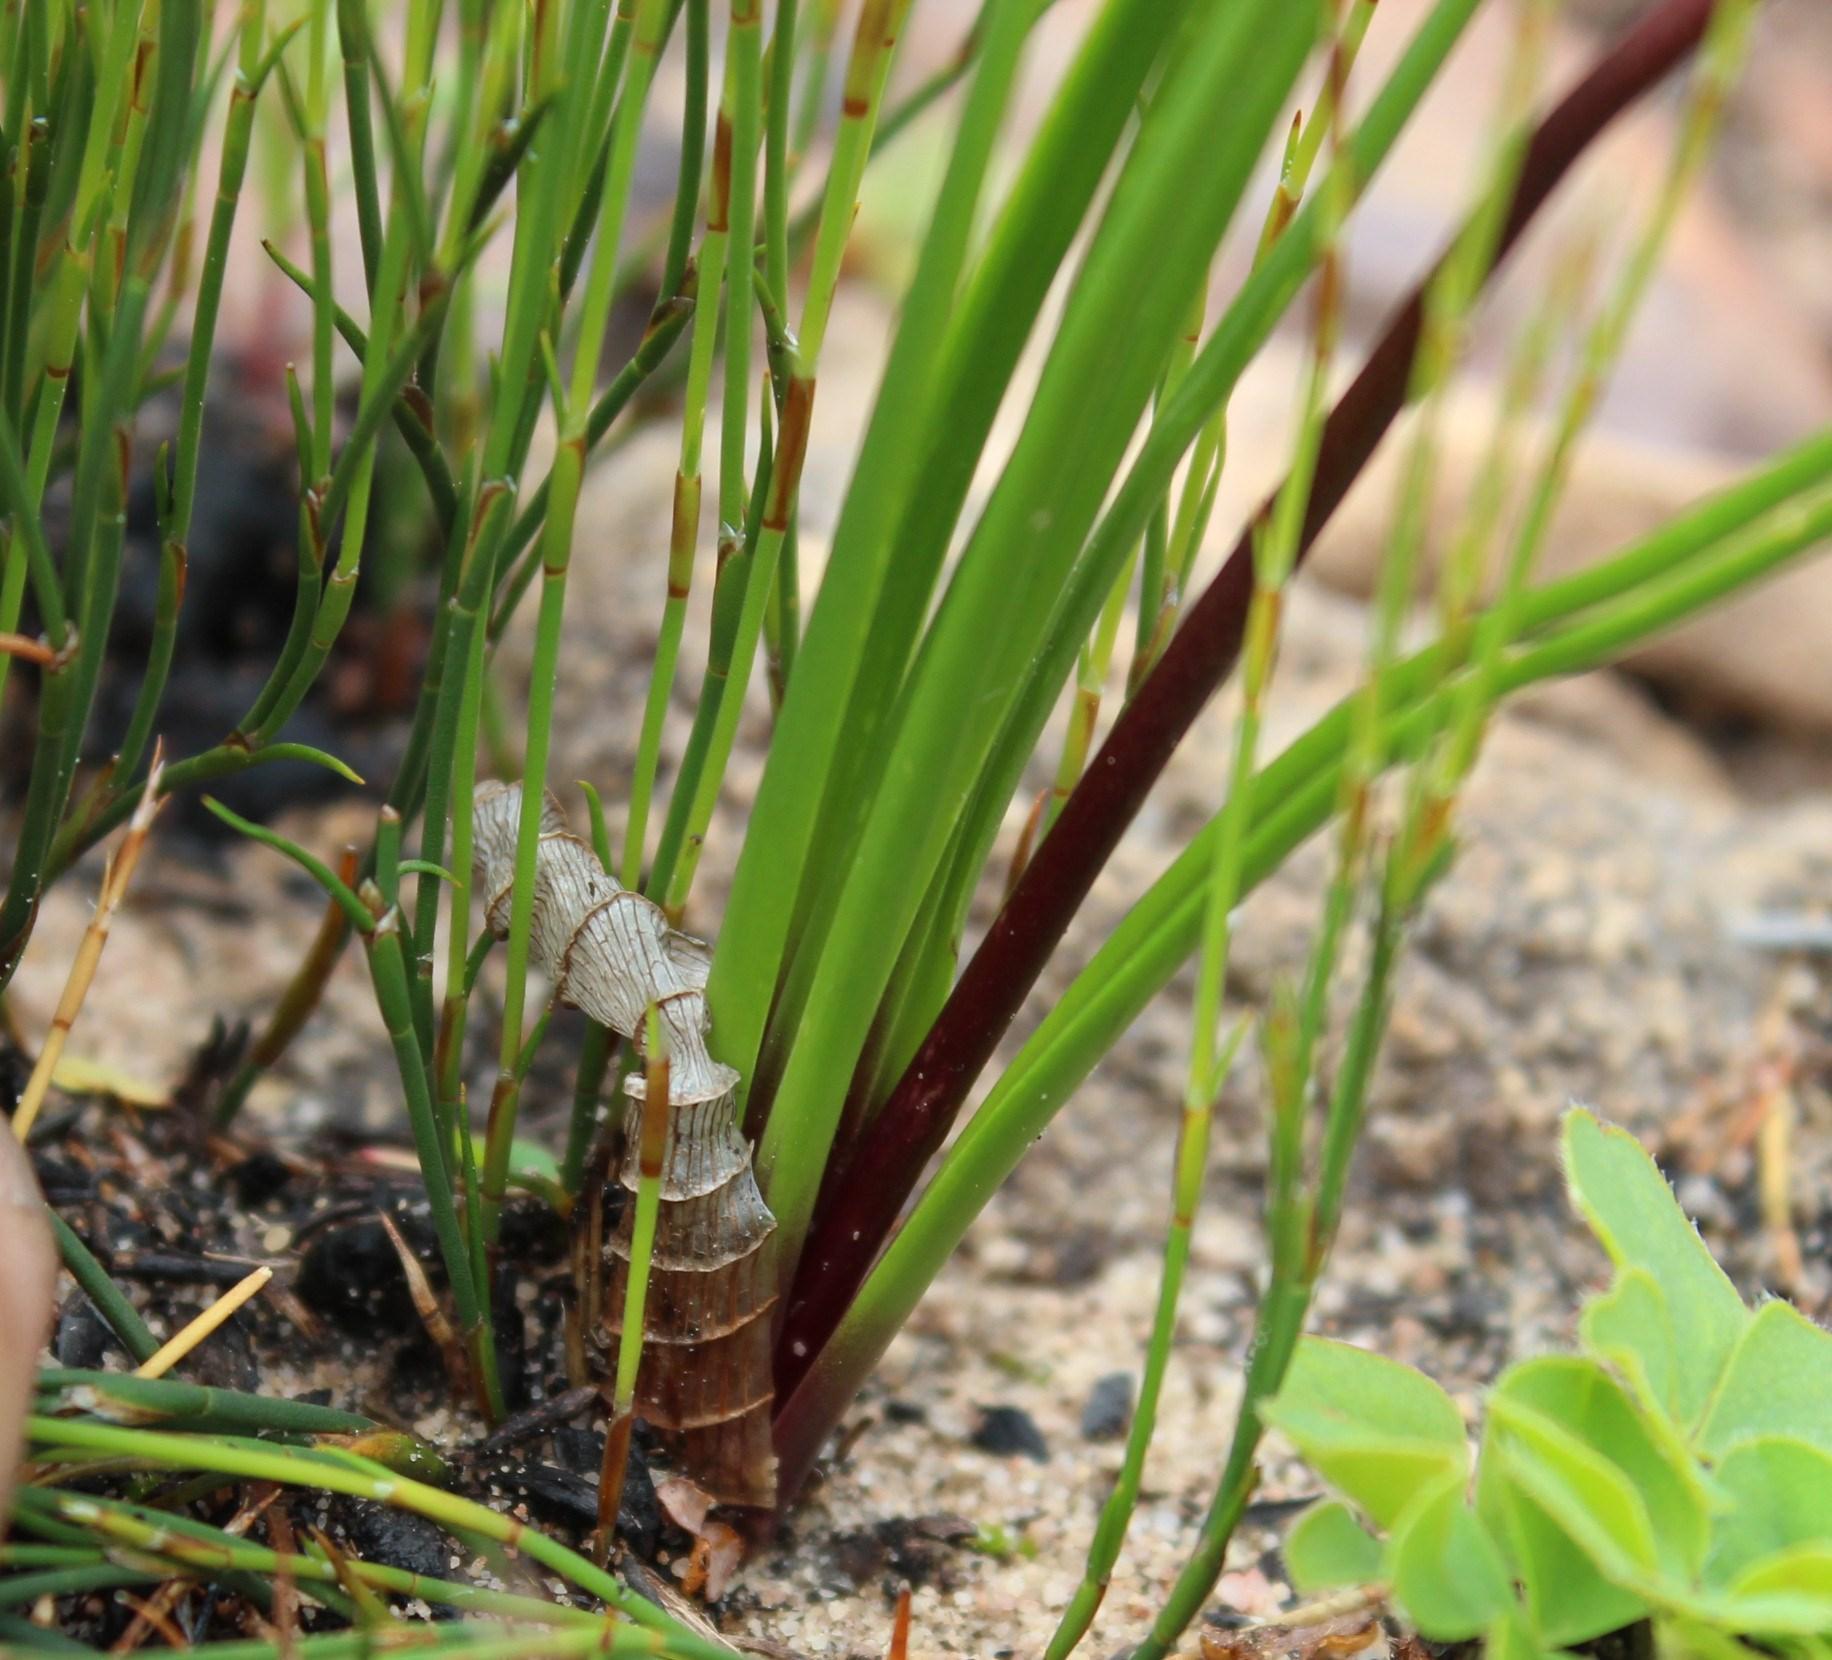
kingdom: Plantae
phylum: Tracheophyta
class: Liliopsida
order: Asparagales
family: Asparagaceae
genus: Drimia
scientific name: Drimia exuviata
